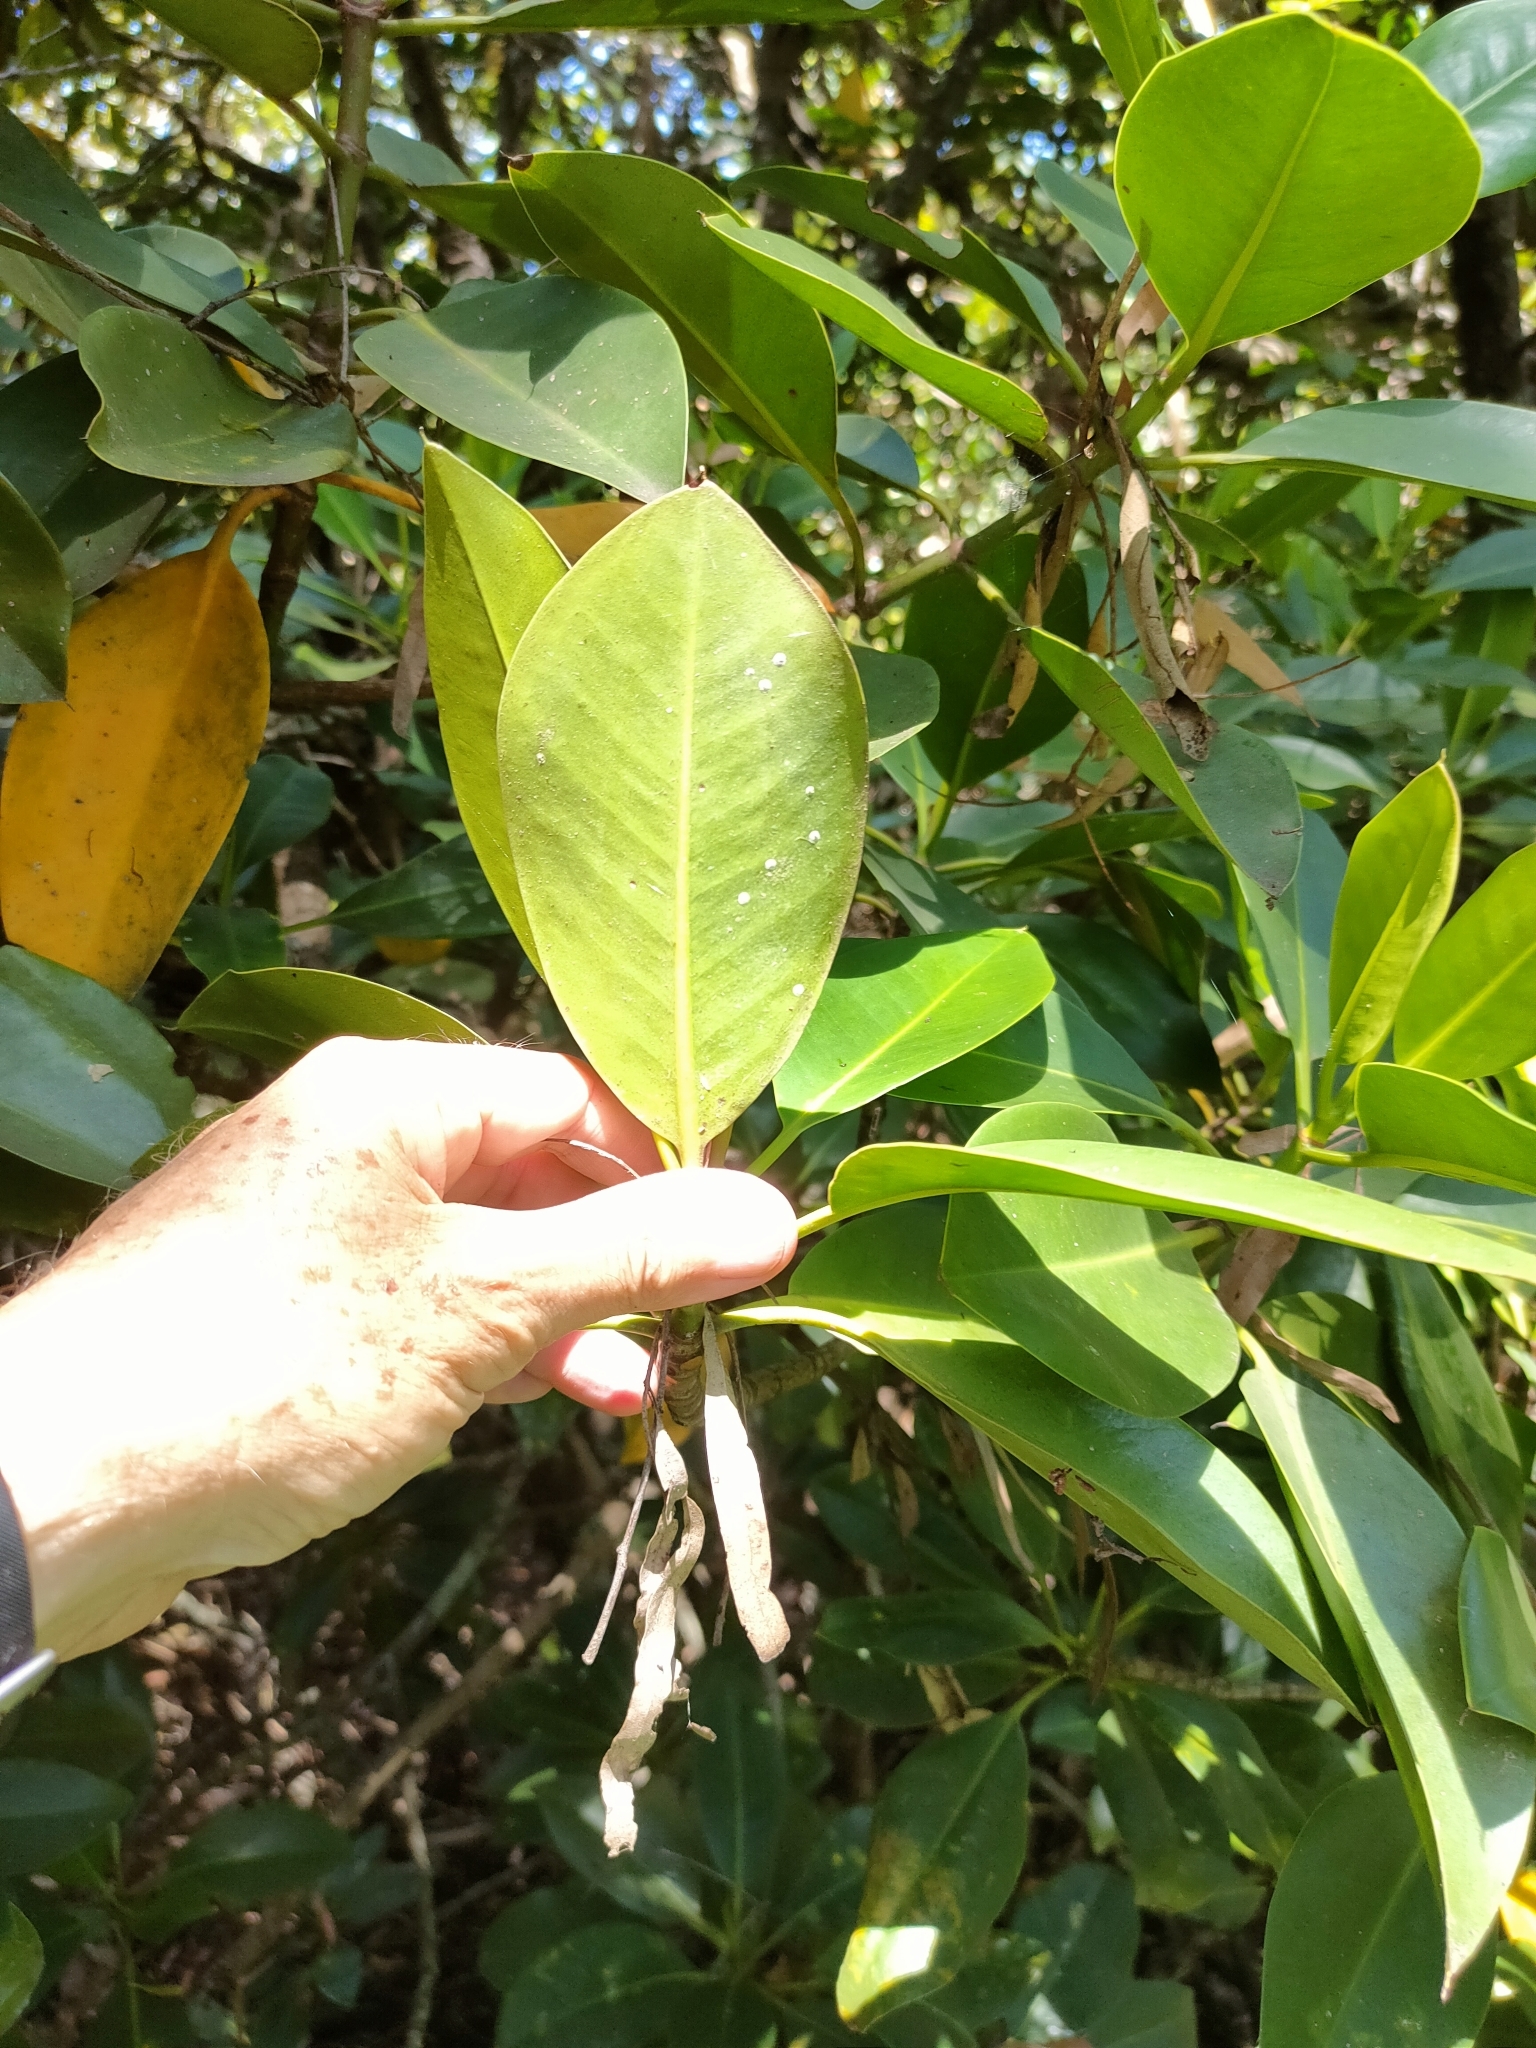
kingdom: Plantae
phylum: Tracheophyta
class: Magnoliopsida
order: Malpighiales
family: Rhizophoraceae
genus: Rhizophora
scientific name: Rhizophora stylosa
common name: Red mangrove
